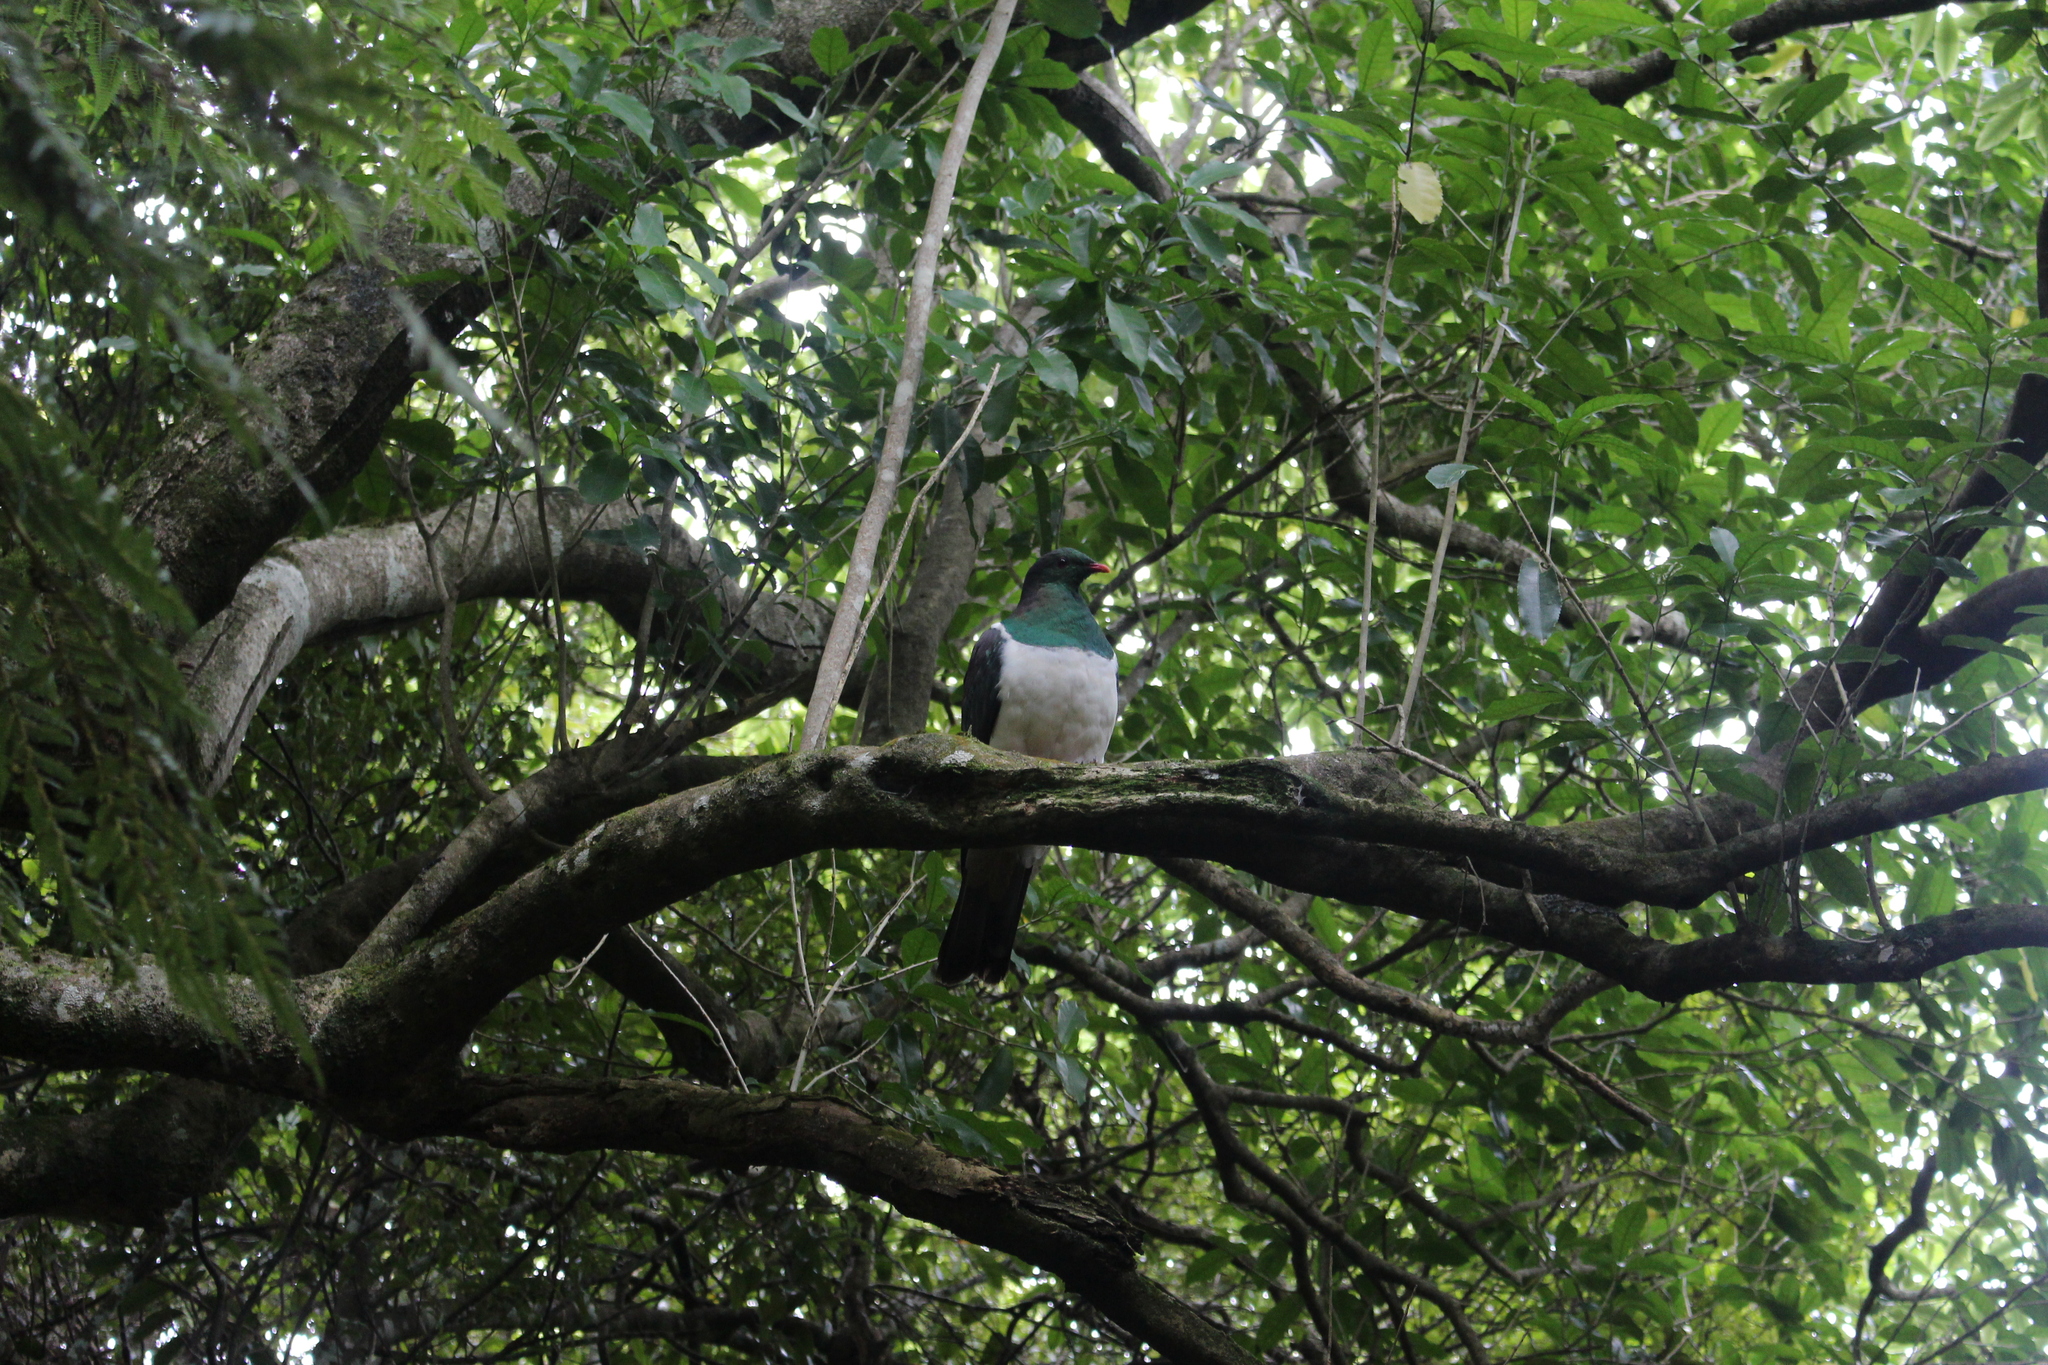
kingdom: Animalia
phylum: Chordata
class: Aves
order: Columbiformes
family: Columbidae
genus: Hemiphaga
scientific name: Hemiphaga novaeseelandiae
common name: New zealand pigeon
